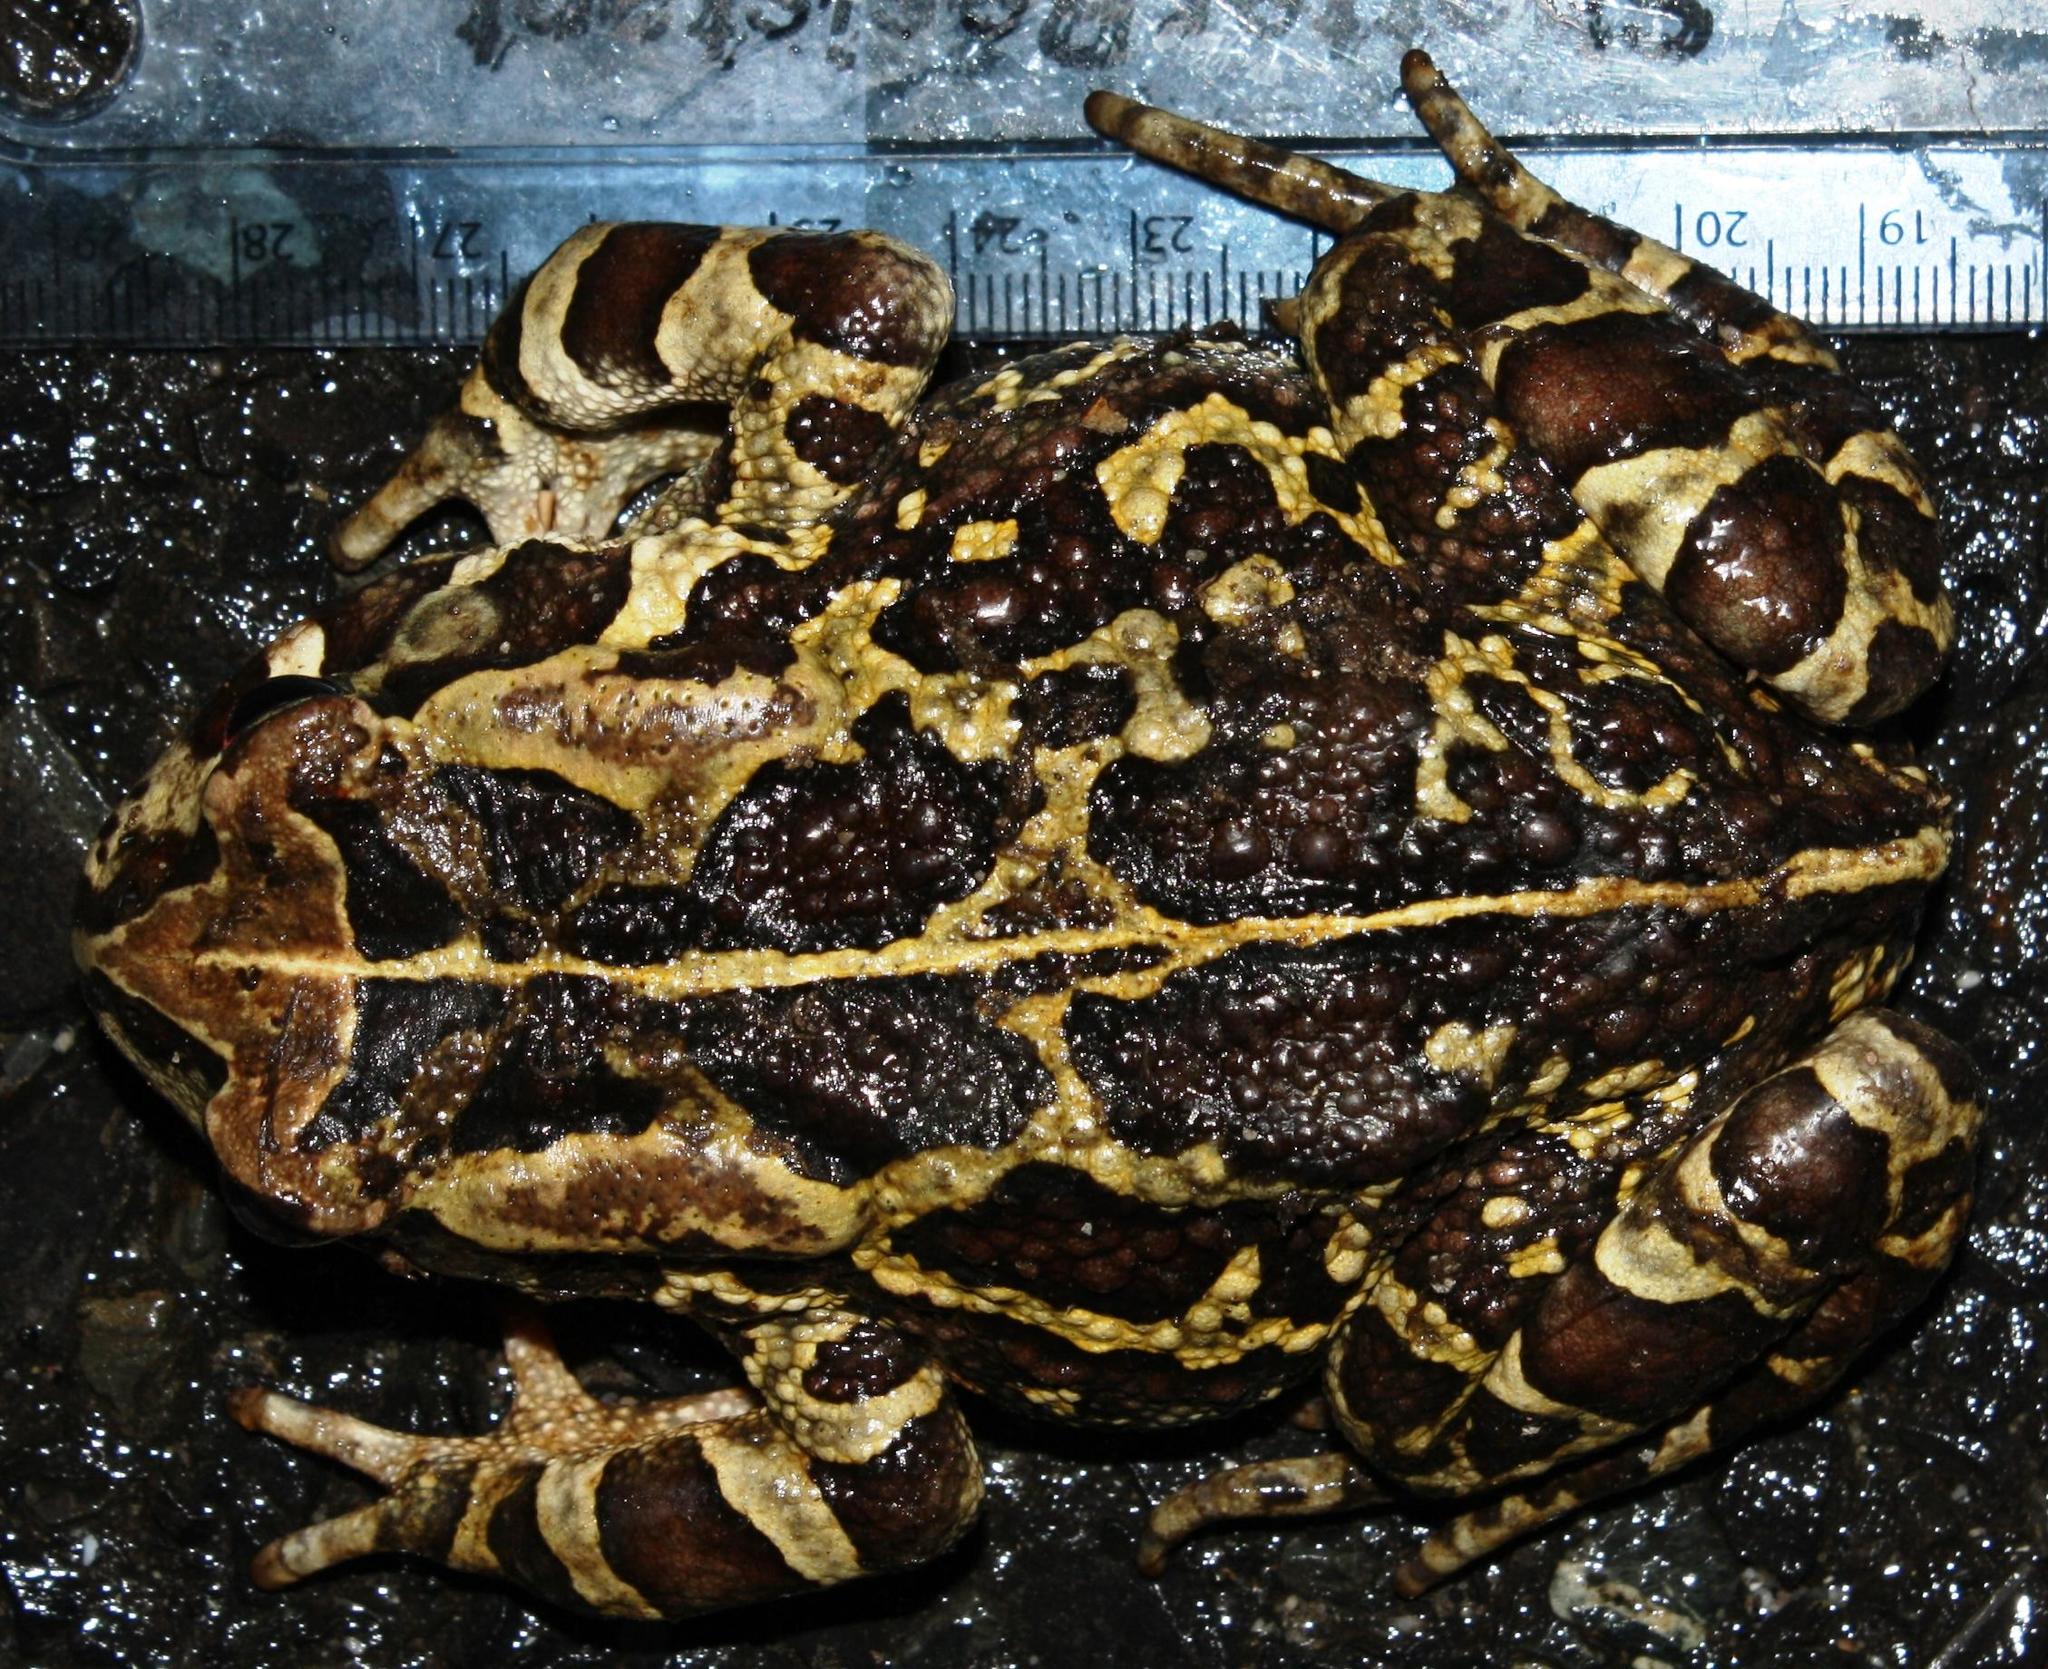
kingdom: Animalia
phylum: Chordata
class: Amphibia
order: Anura
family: Bufonidae
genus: Sclerophrys
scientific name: Sclerophrys pantherina
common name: Panther toad
